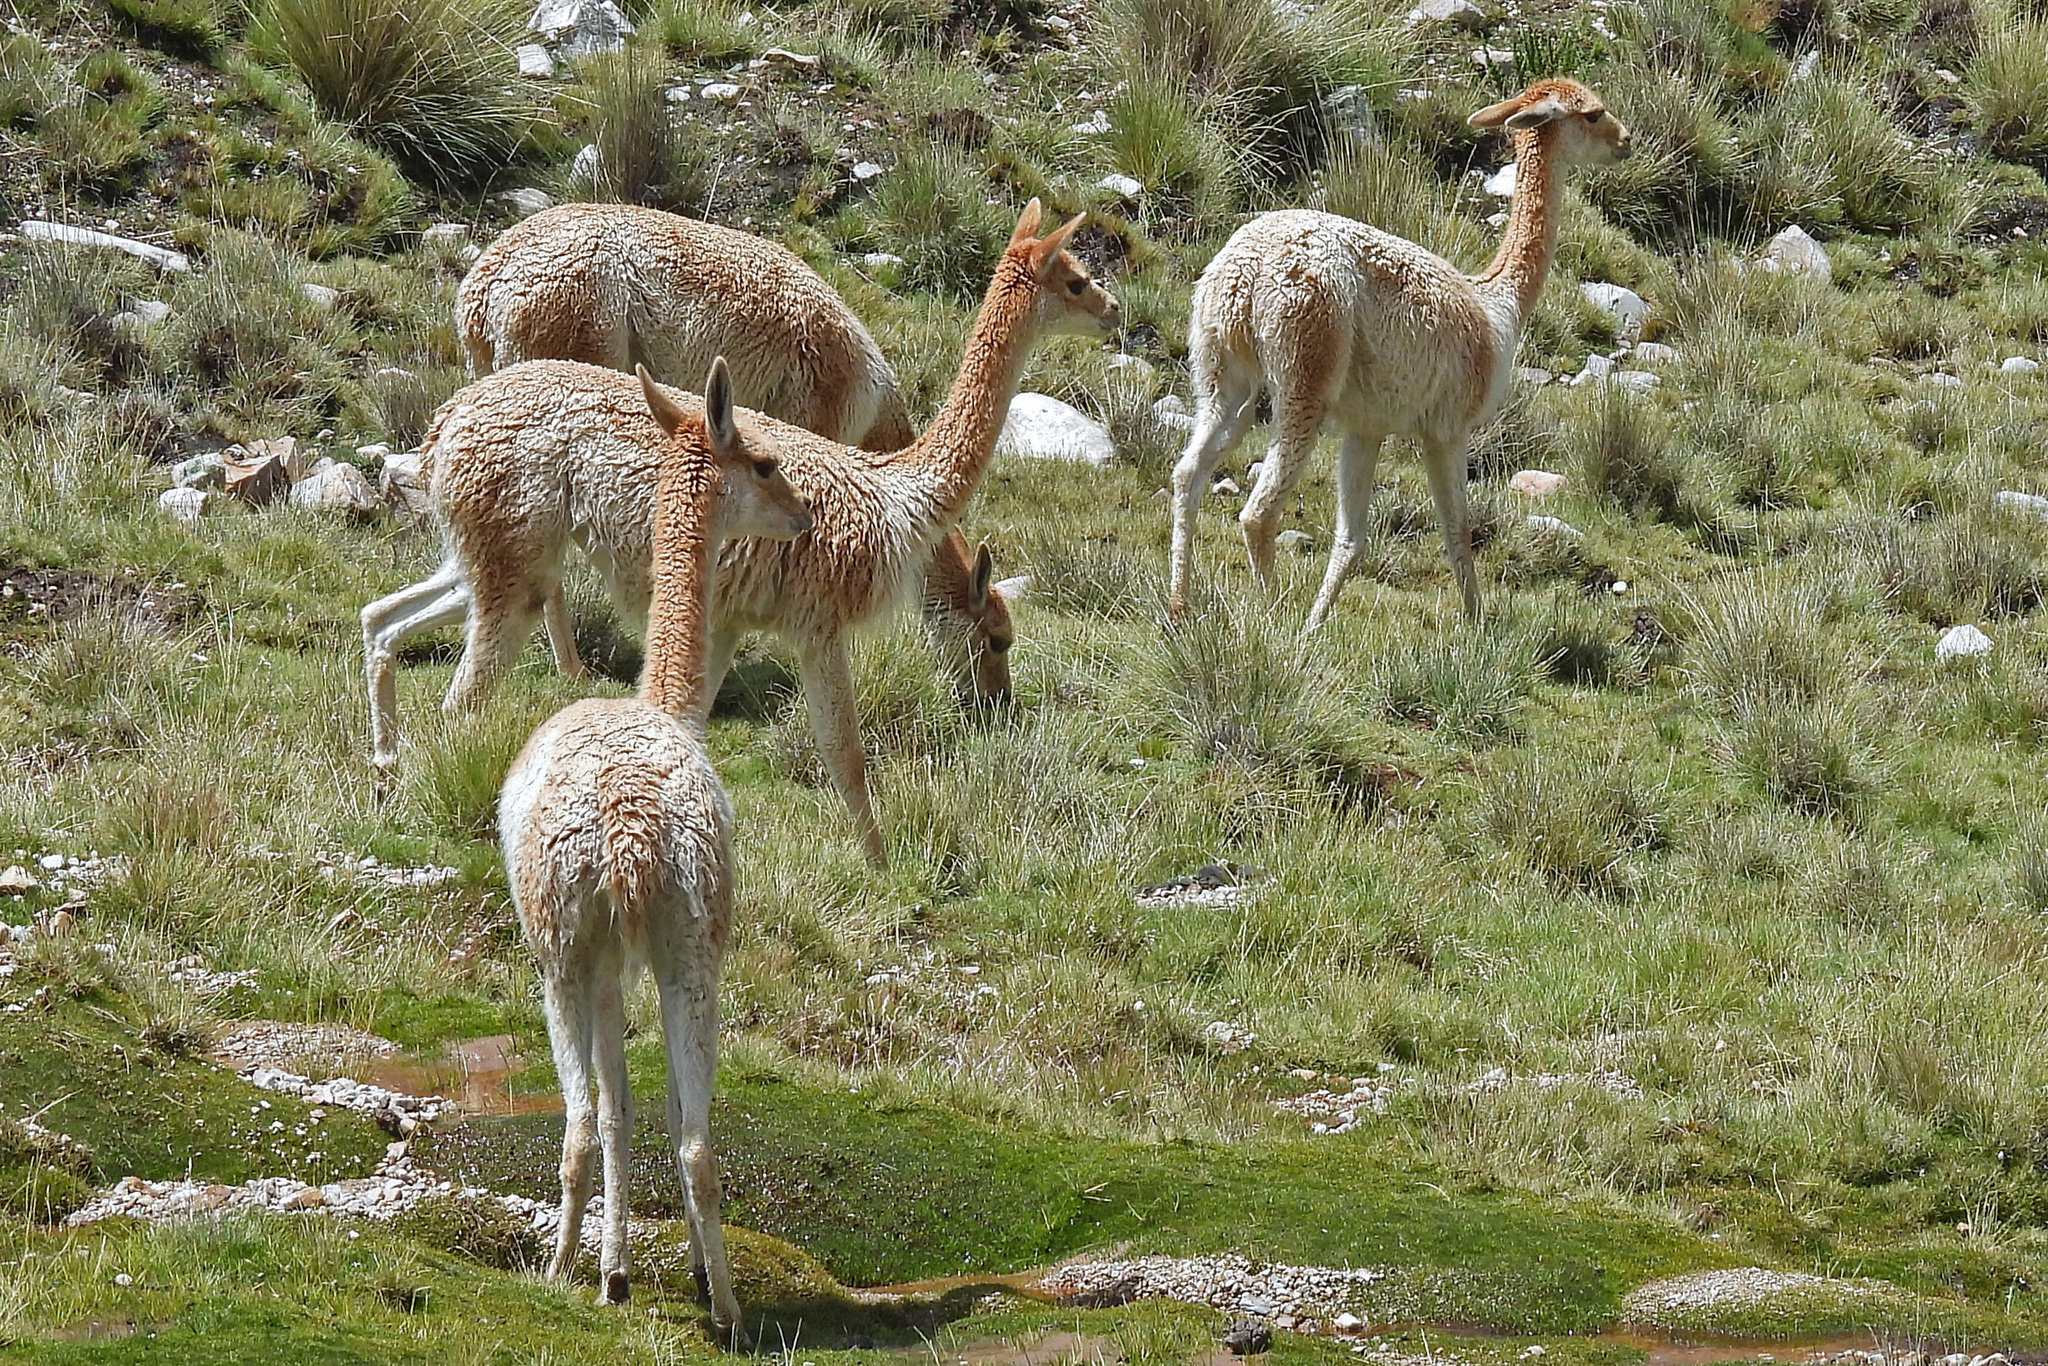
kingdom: Animalia
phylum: Chordata
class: Mammalia
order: Artiodactyla
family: Camelidae
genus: Vicugna
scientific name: Vicugna vicugna
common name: Vicugna
